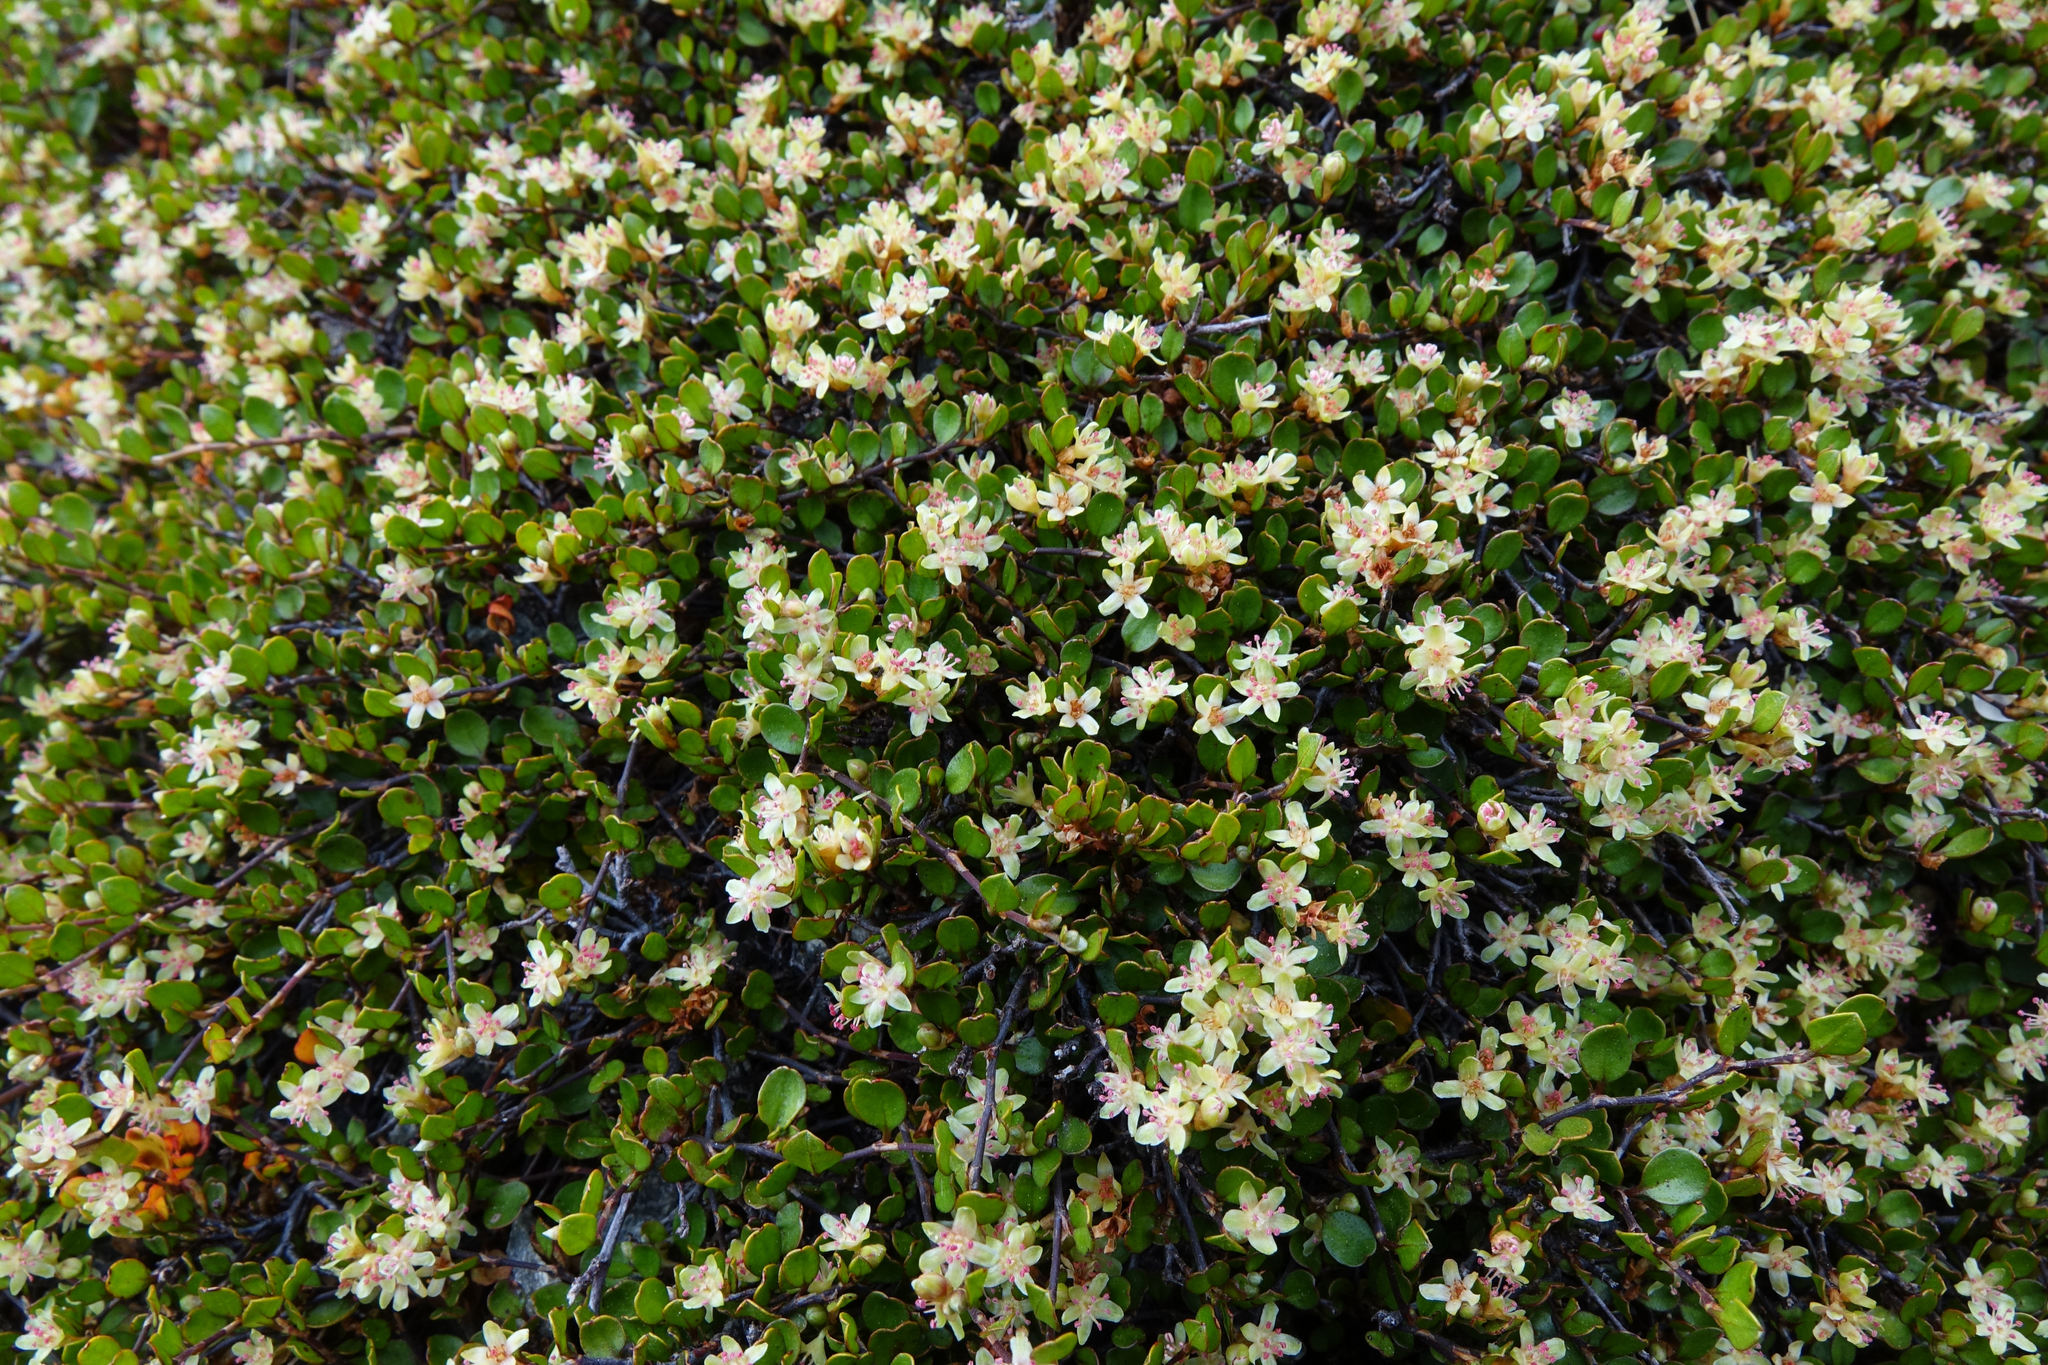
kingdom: Plantae
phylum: Tracheophyta
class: Magnoliopsida
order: Caryophyllales
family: Polygonaceae
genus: Muehlenbeckia
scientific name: Muehlenbeckia axillaris
